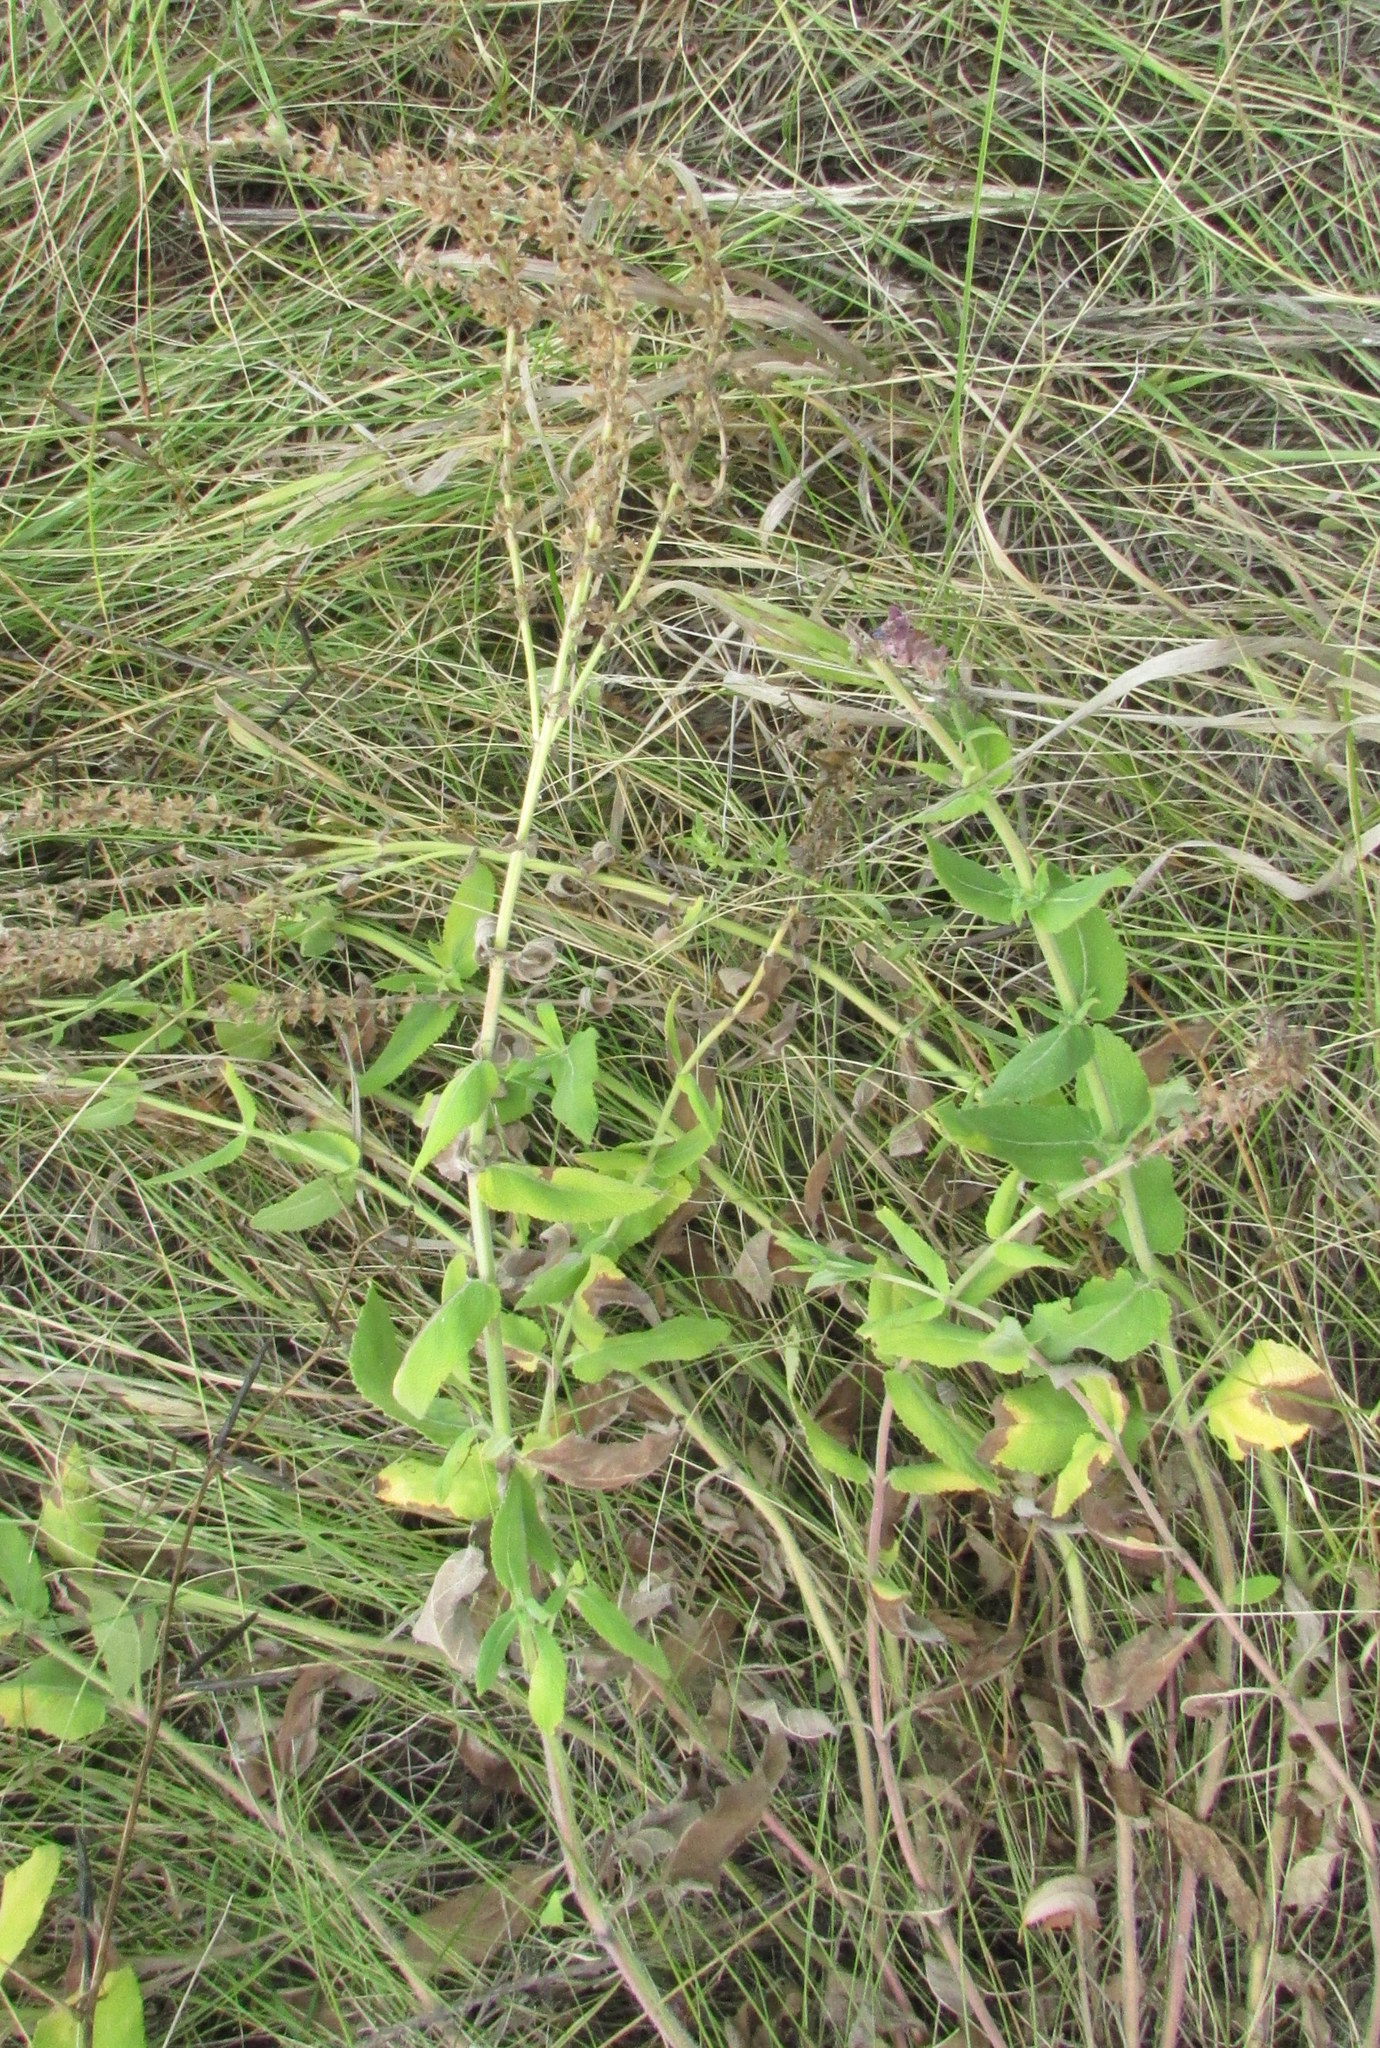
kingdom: Plantae
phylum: Tracheophyta
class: Magnoliopsida
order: Lamiales
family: Lamiaceae
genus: Salvia
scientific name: Salvia nemorosa
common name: Balkan clary
